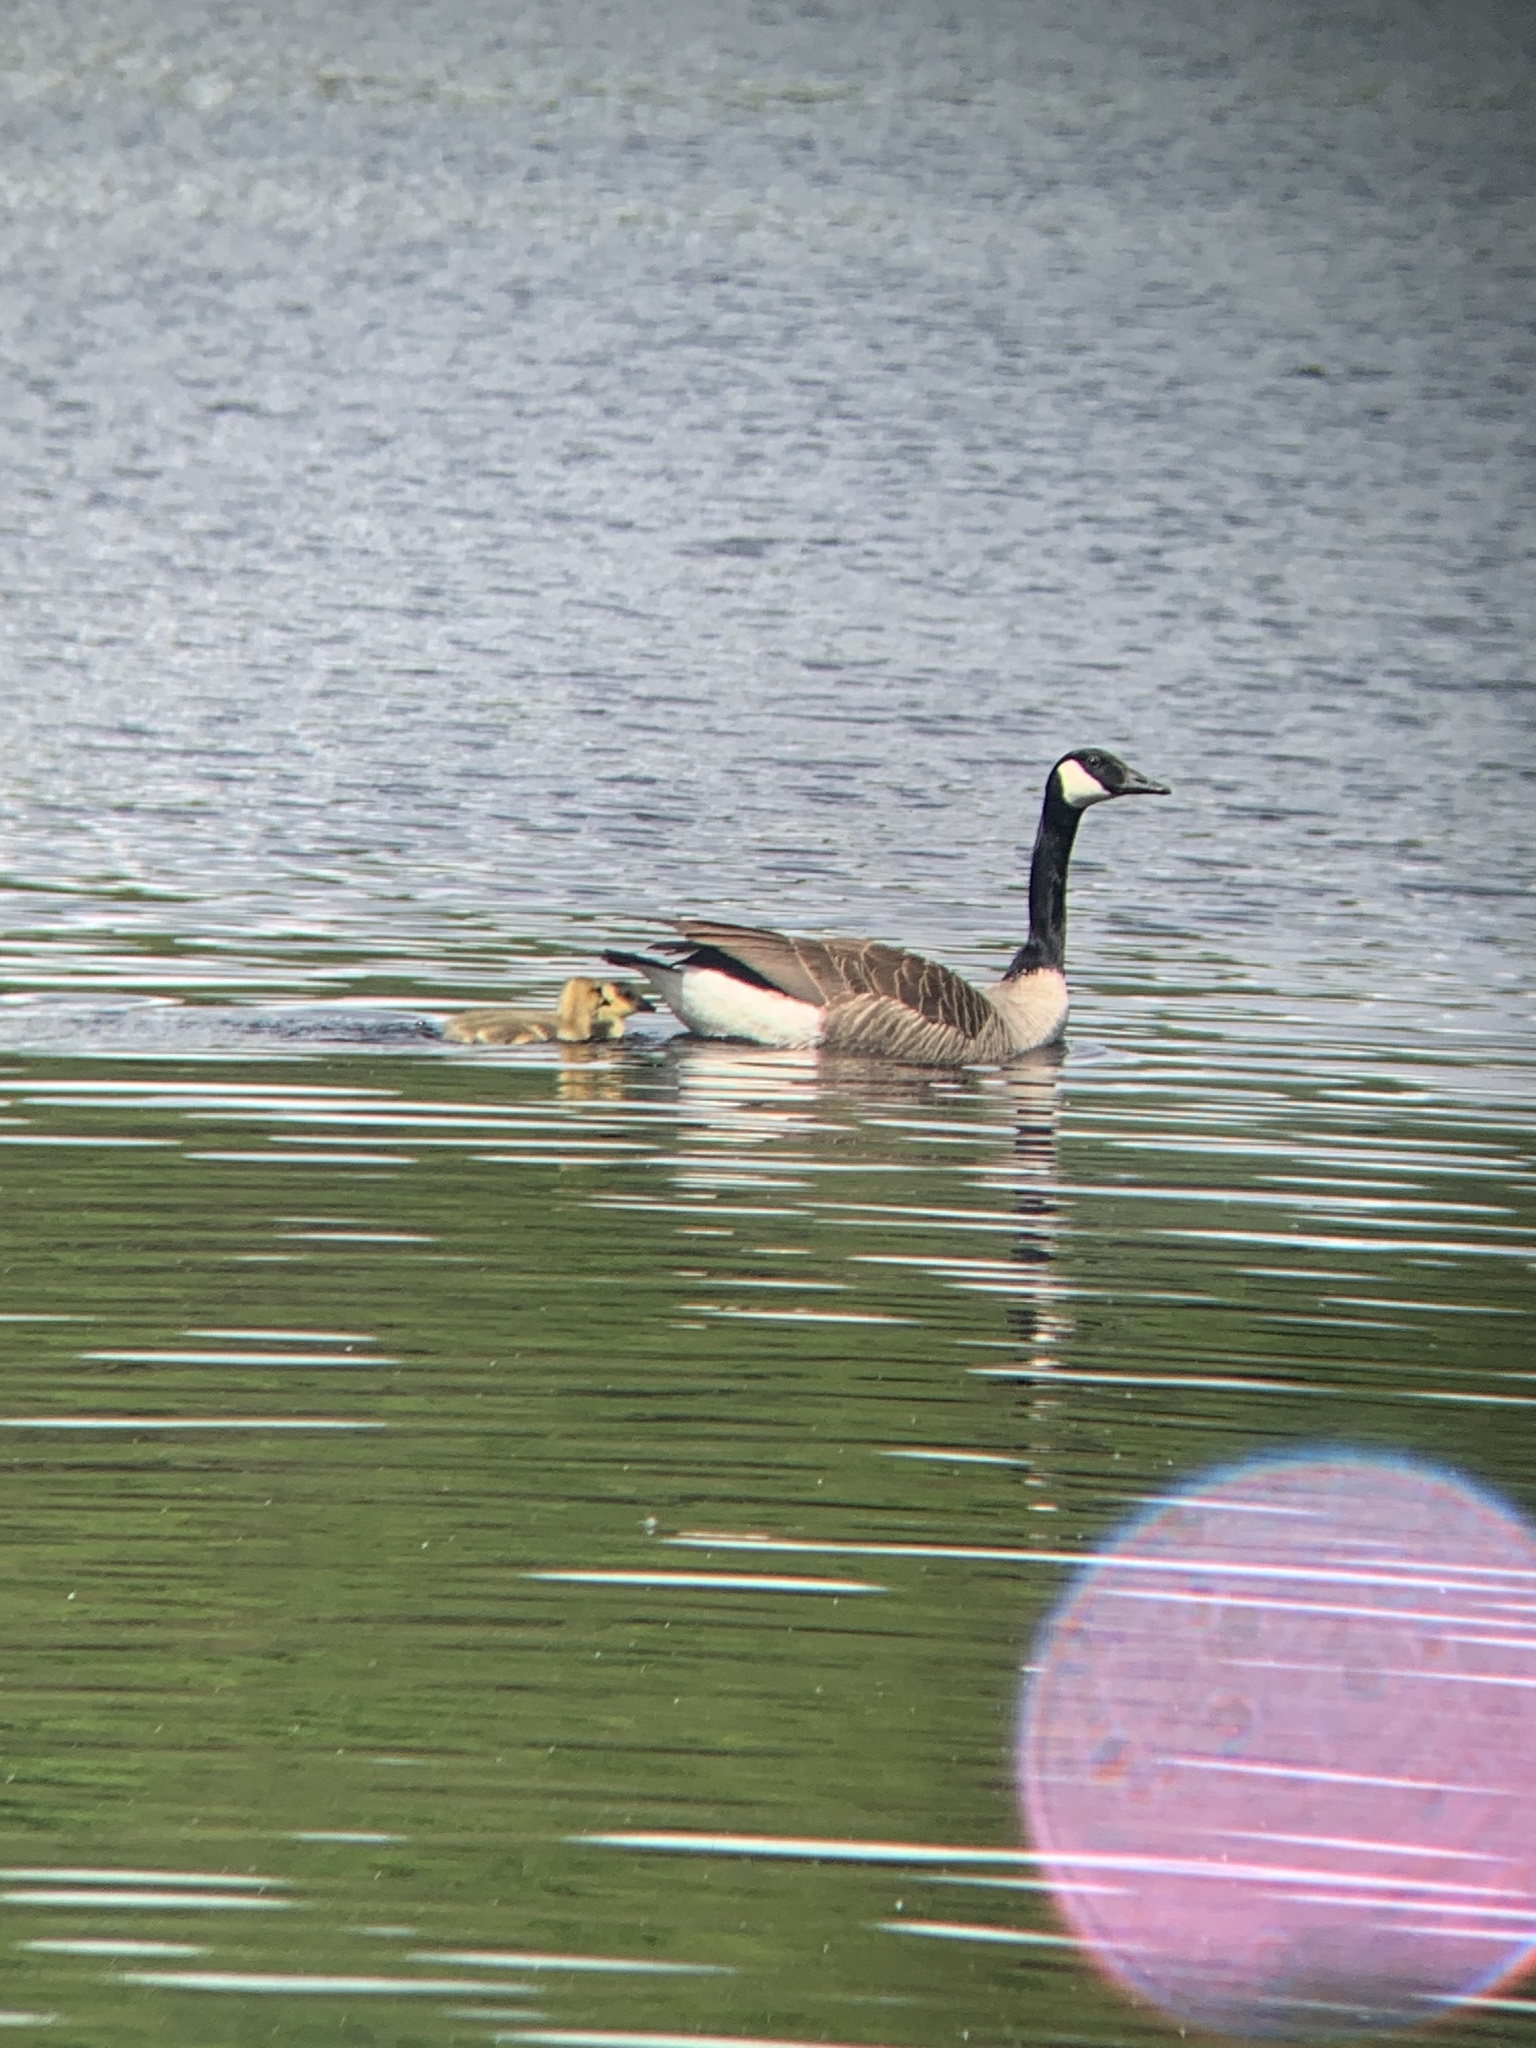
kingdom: Animalia
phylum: Chordata
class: Aves
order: Anseriformes
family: Anatidae
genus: Branta
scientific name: Branta canadensis
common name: Canada goose
